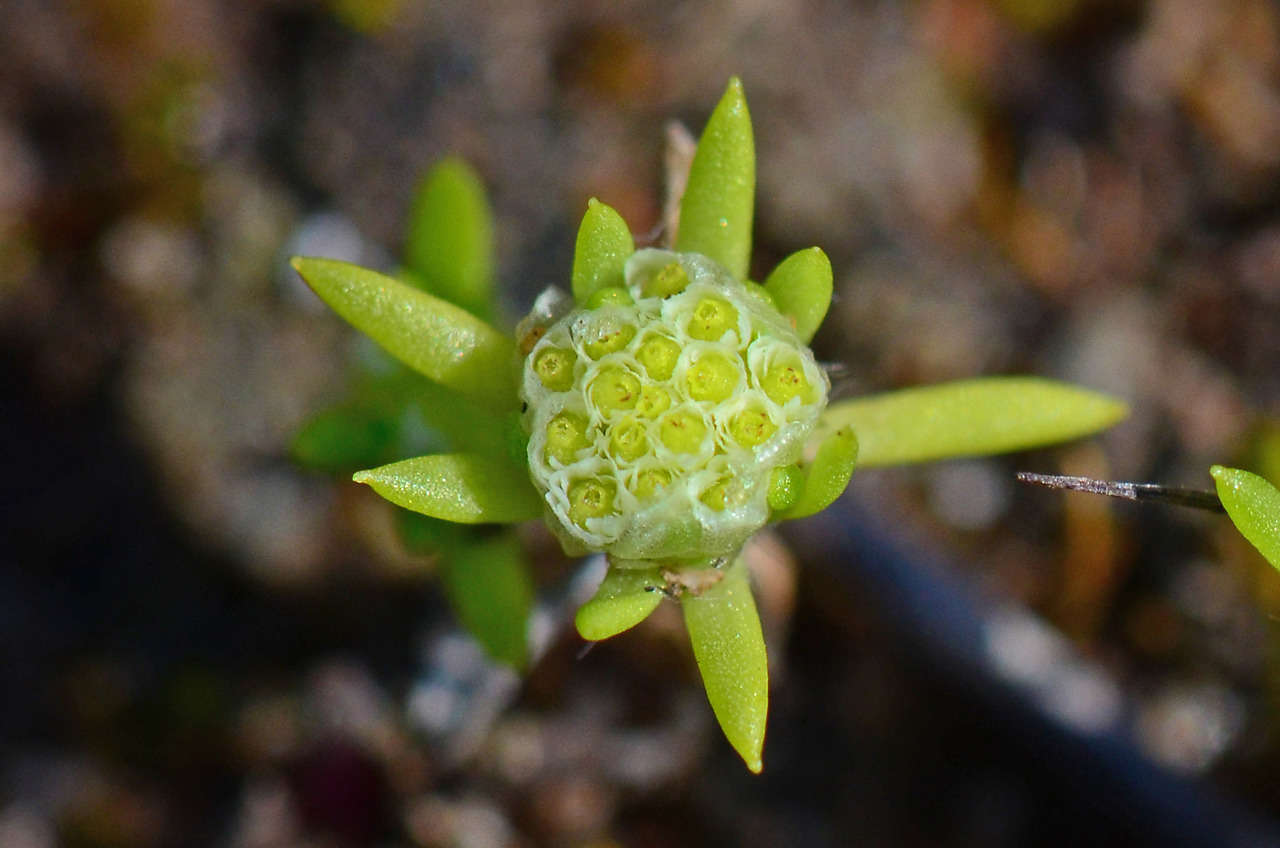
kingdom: Plantae
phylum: Tracheophyta
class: Magnoliopsida
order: Asterales
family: Asteraceae
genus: Siloxerus
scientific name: Siloxerus multiflorus
